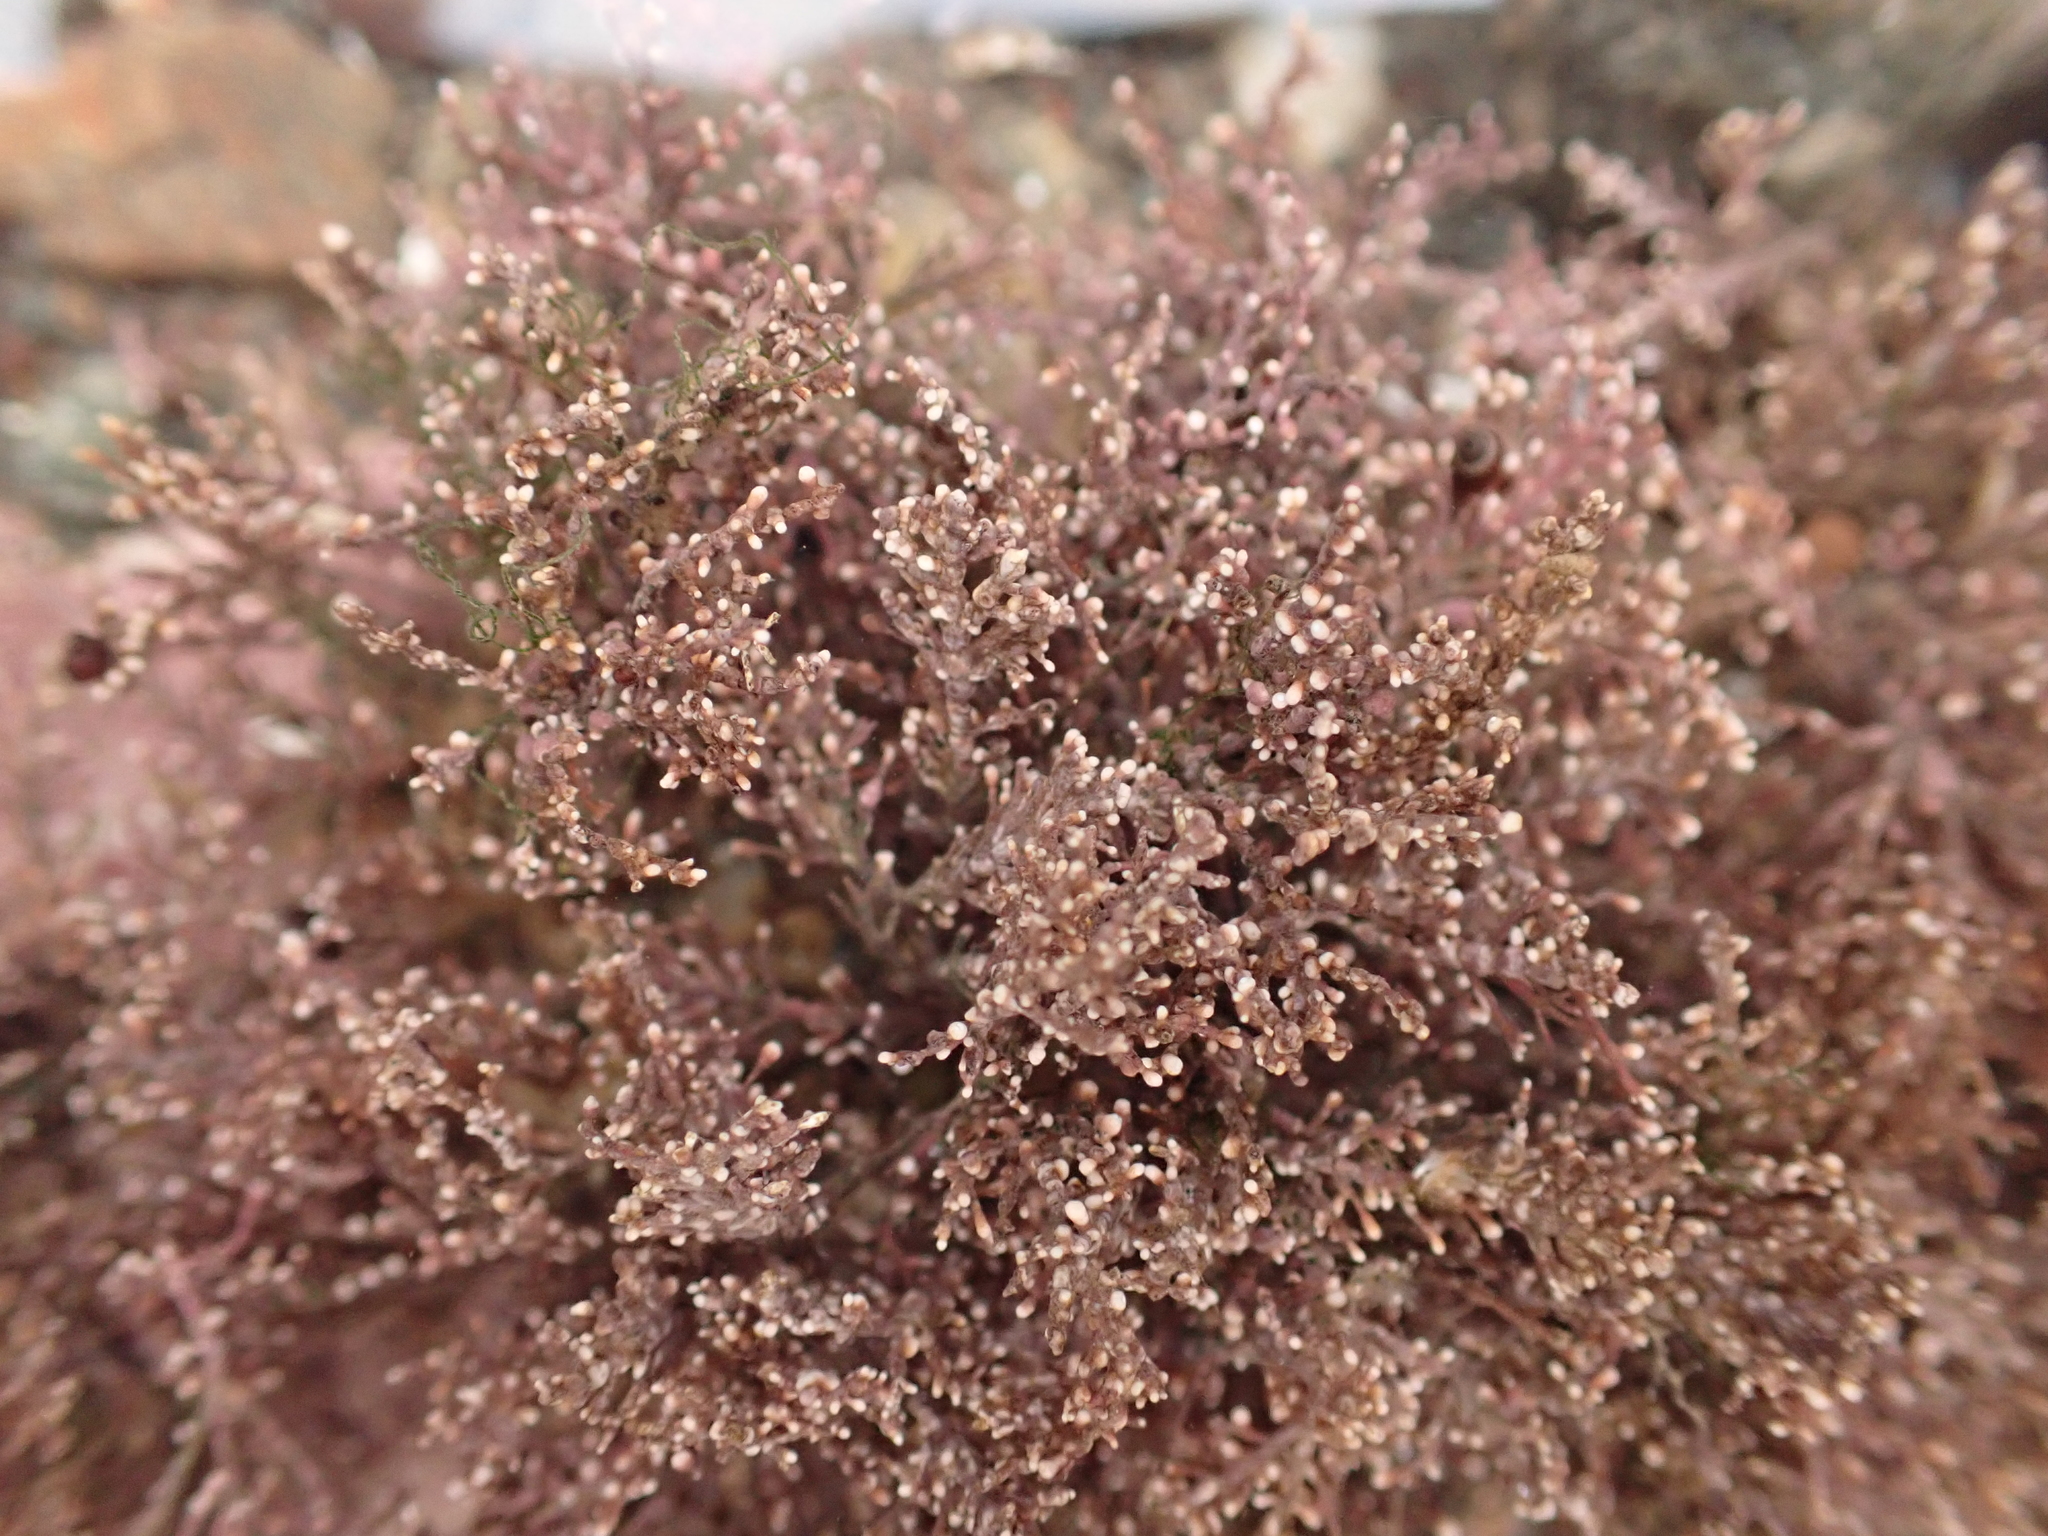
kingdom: Plantae
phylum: Rhodophyta
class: Florideophyceae
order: Corallinales
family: Corallinaceae
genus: Corallina
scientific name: Corallina officinalis
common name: Coral weed
